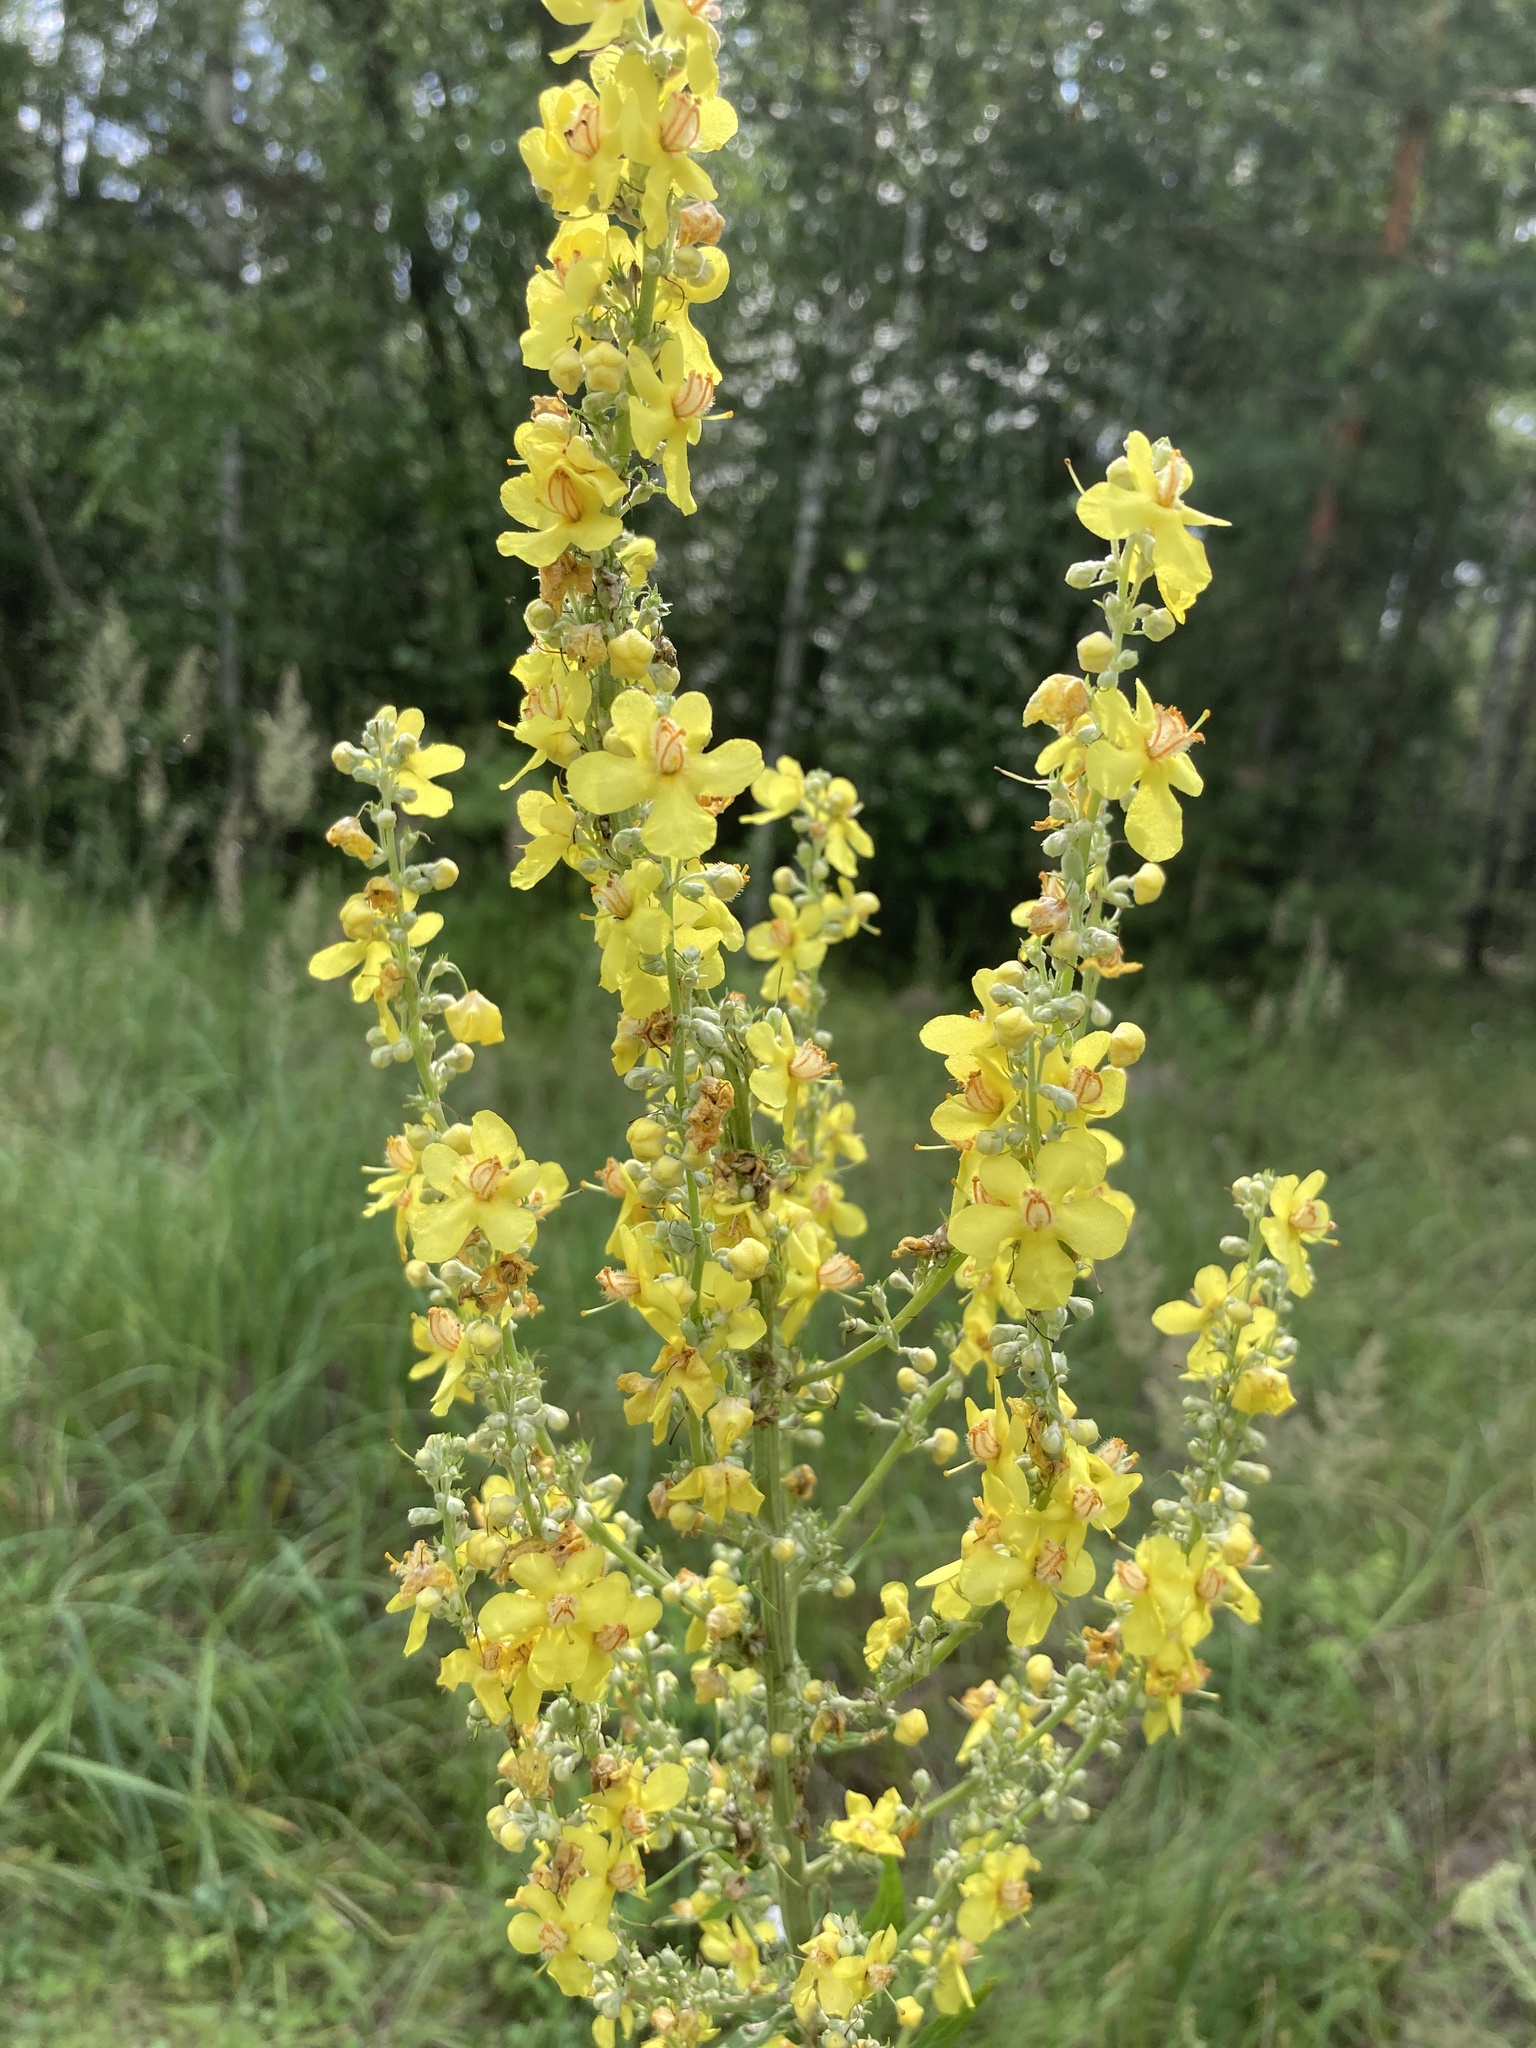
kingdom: Plantae
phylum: Tracheophyta
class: Magnoliopsida
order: Lamiales
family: Scrophulariaceae
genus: Verbascum
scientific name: Verbascum lychnitis
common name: White mullein
